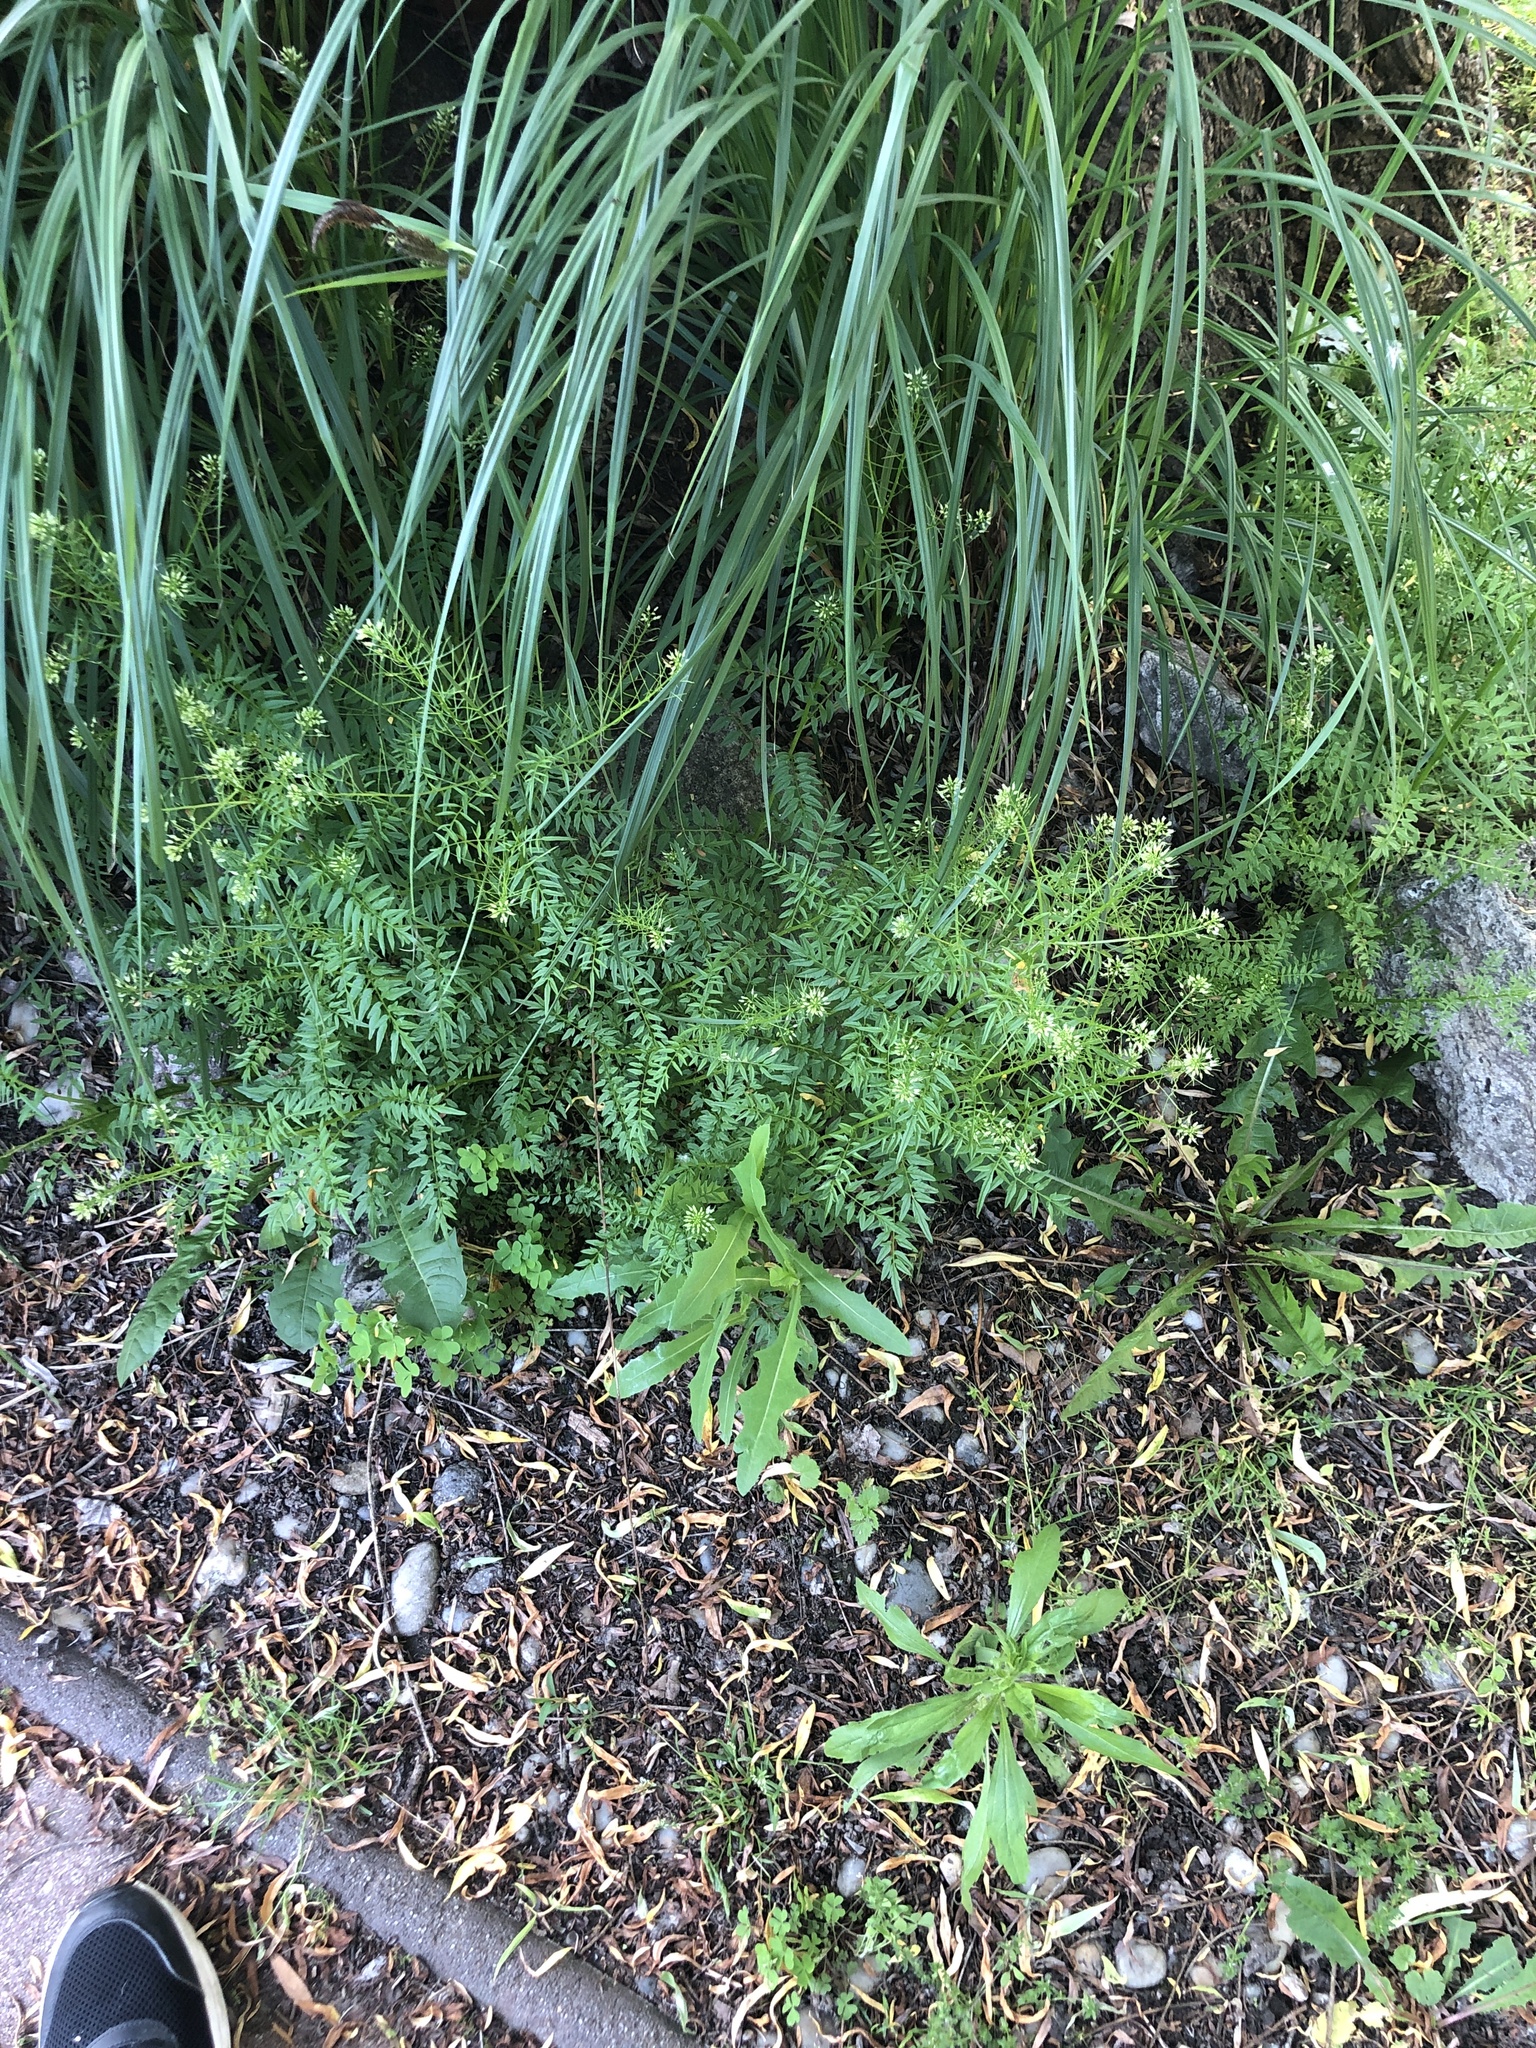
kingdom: Plantae
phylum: Tracheophyta
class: Magnoliopsida
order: Brassicales
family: Brassicaceae
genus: Cardamine
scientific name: Cardamine impatiens
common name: Narrow-leaved bitter-cress
